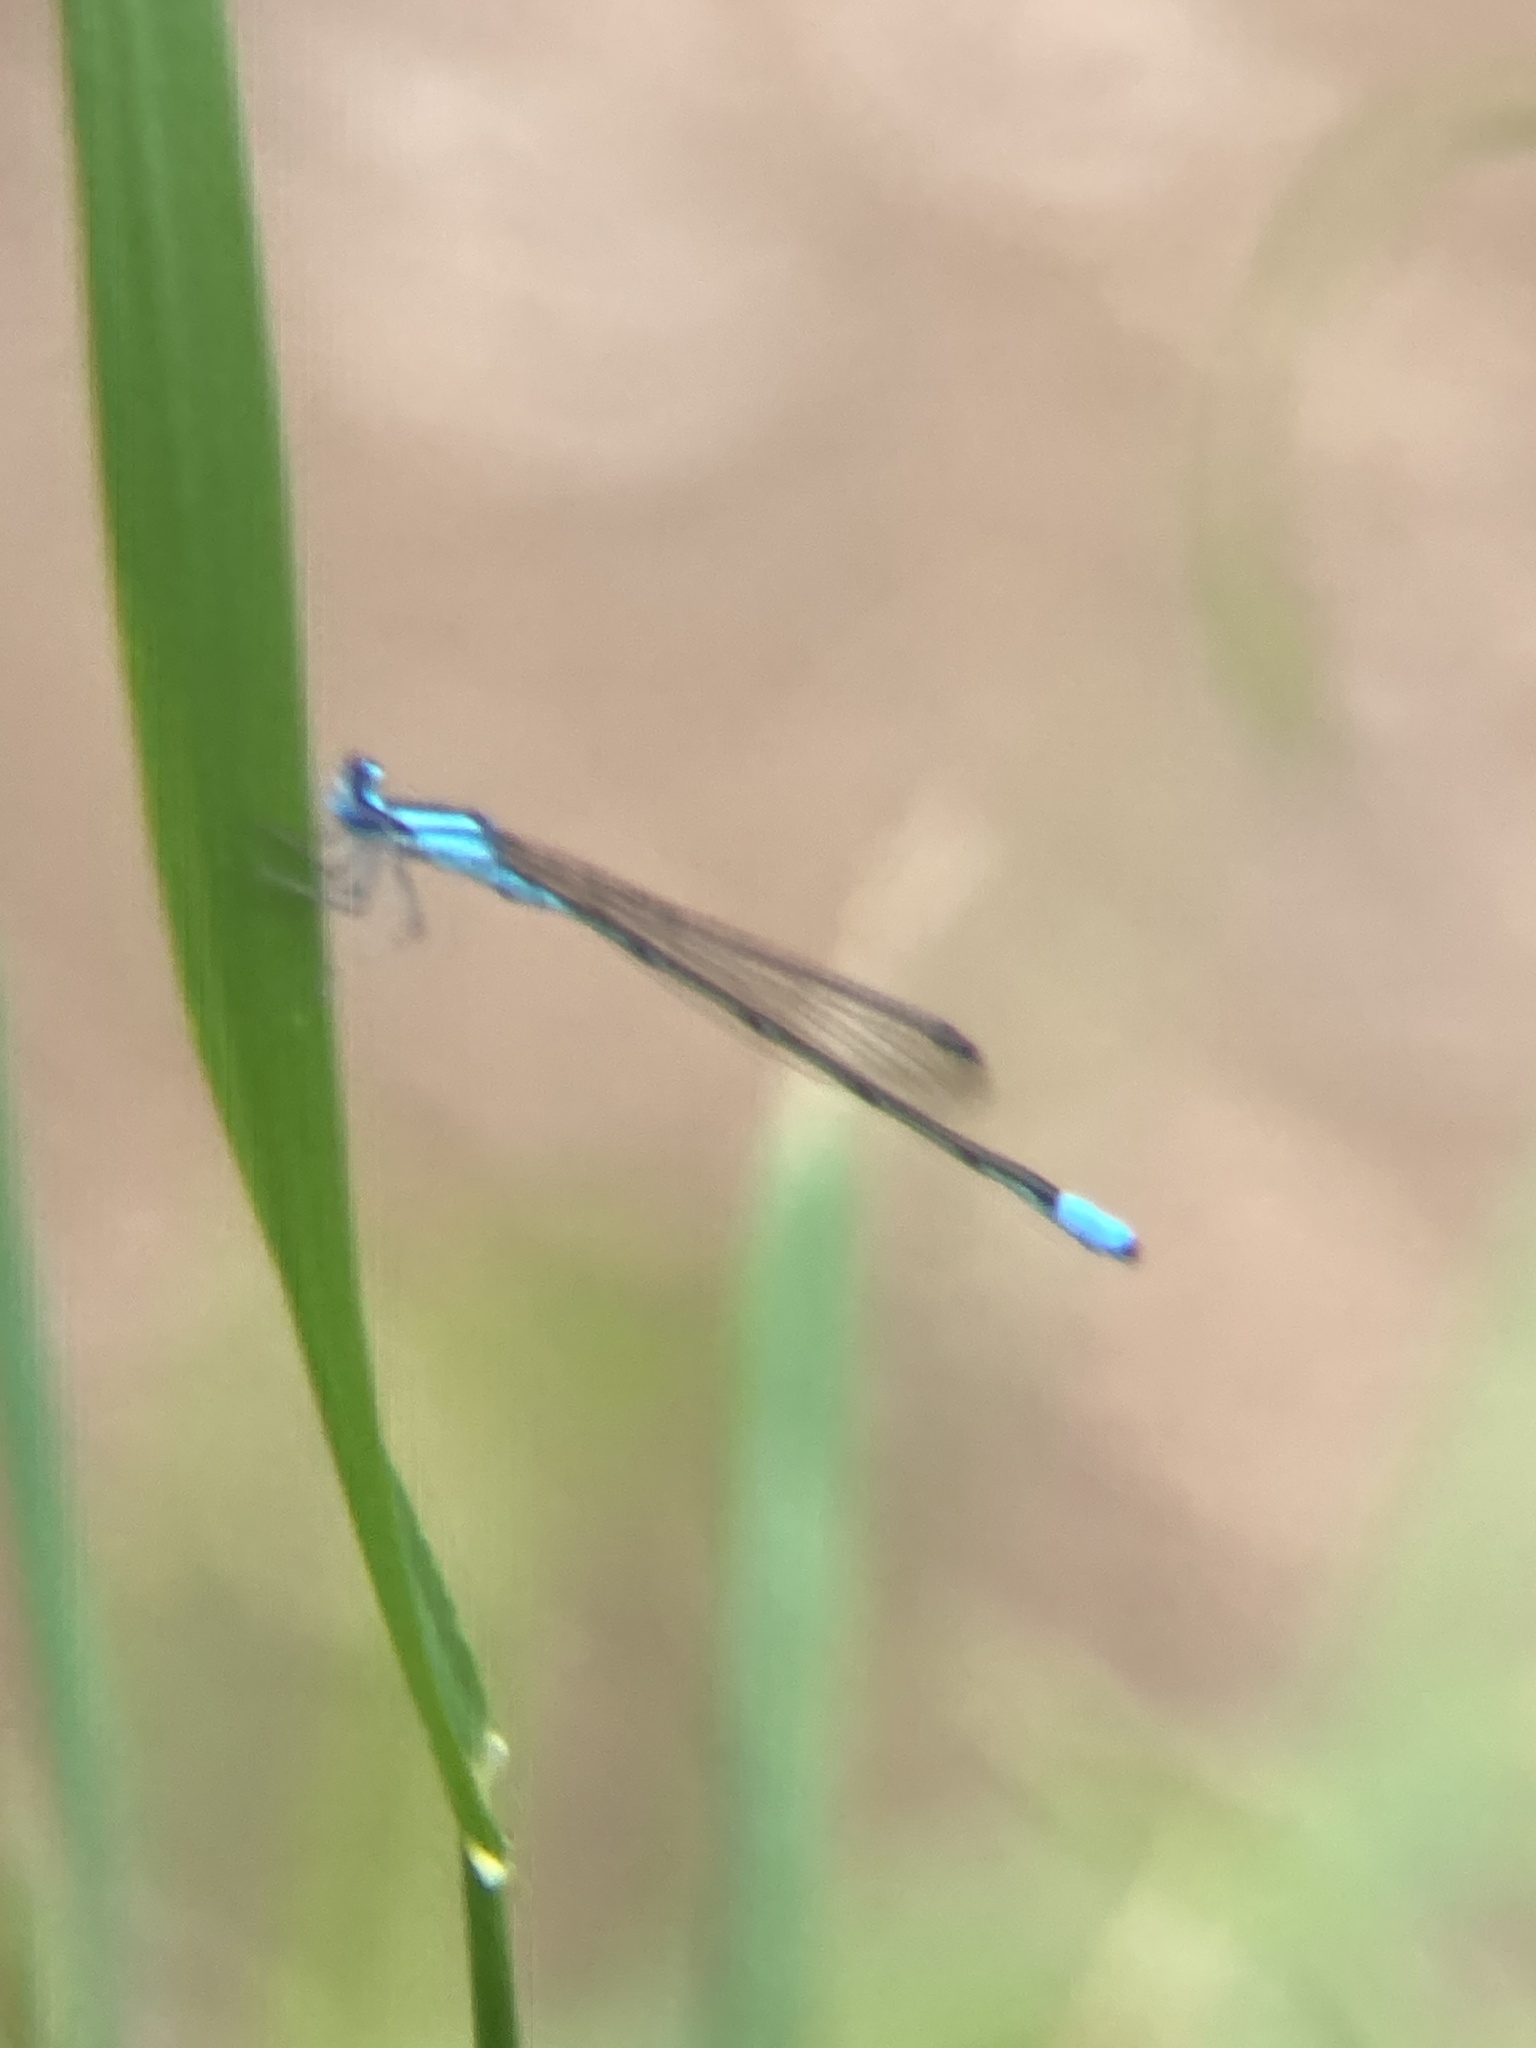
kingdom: Animalia
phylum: Arthropoda
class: Insecta
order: Odonata
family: Coenagrionidae
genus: Enallagma
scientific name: Enallagma divagans
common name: Turquoise bluet
